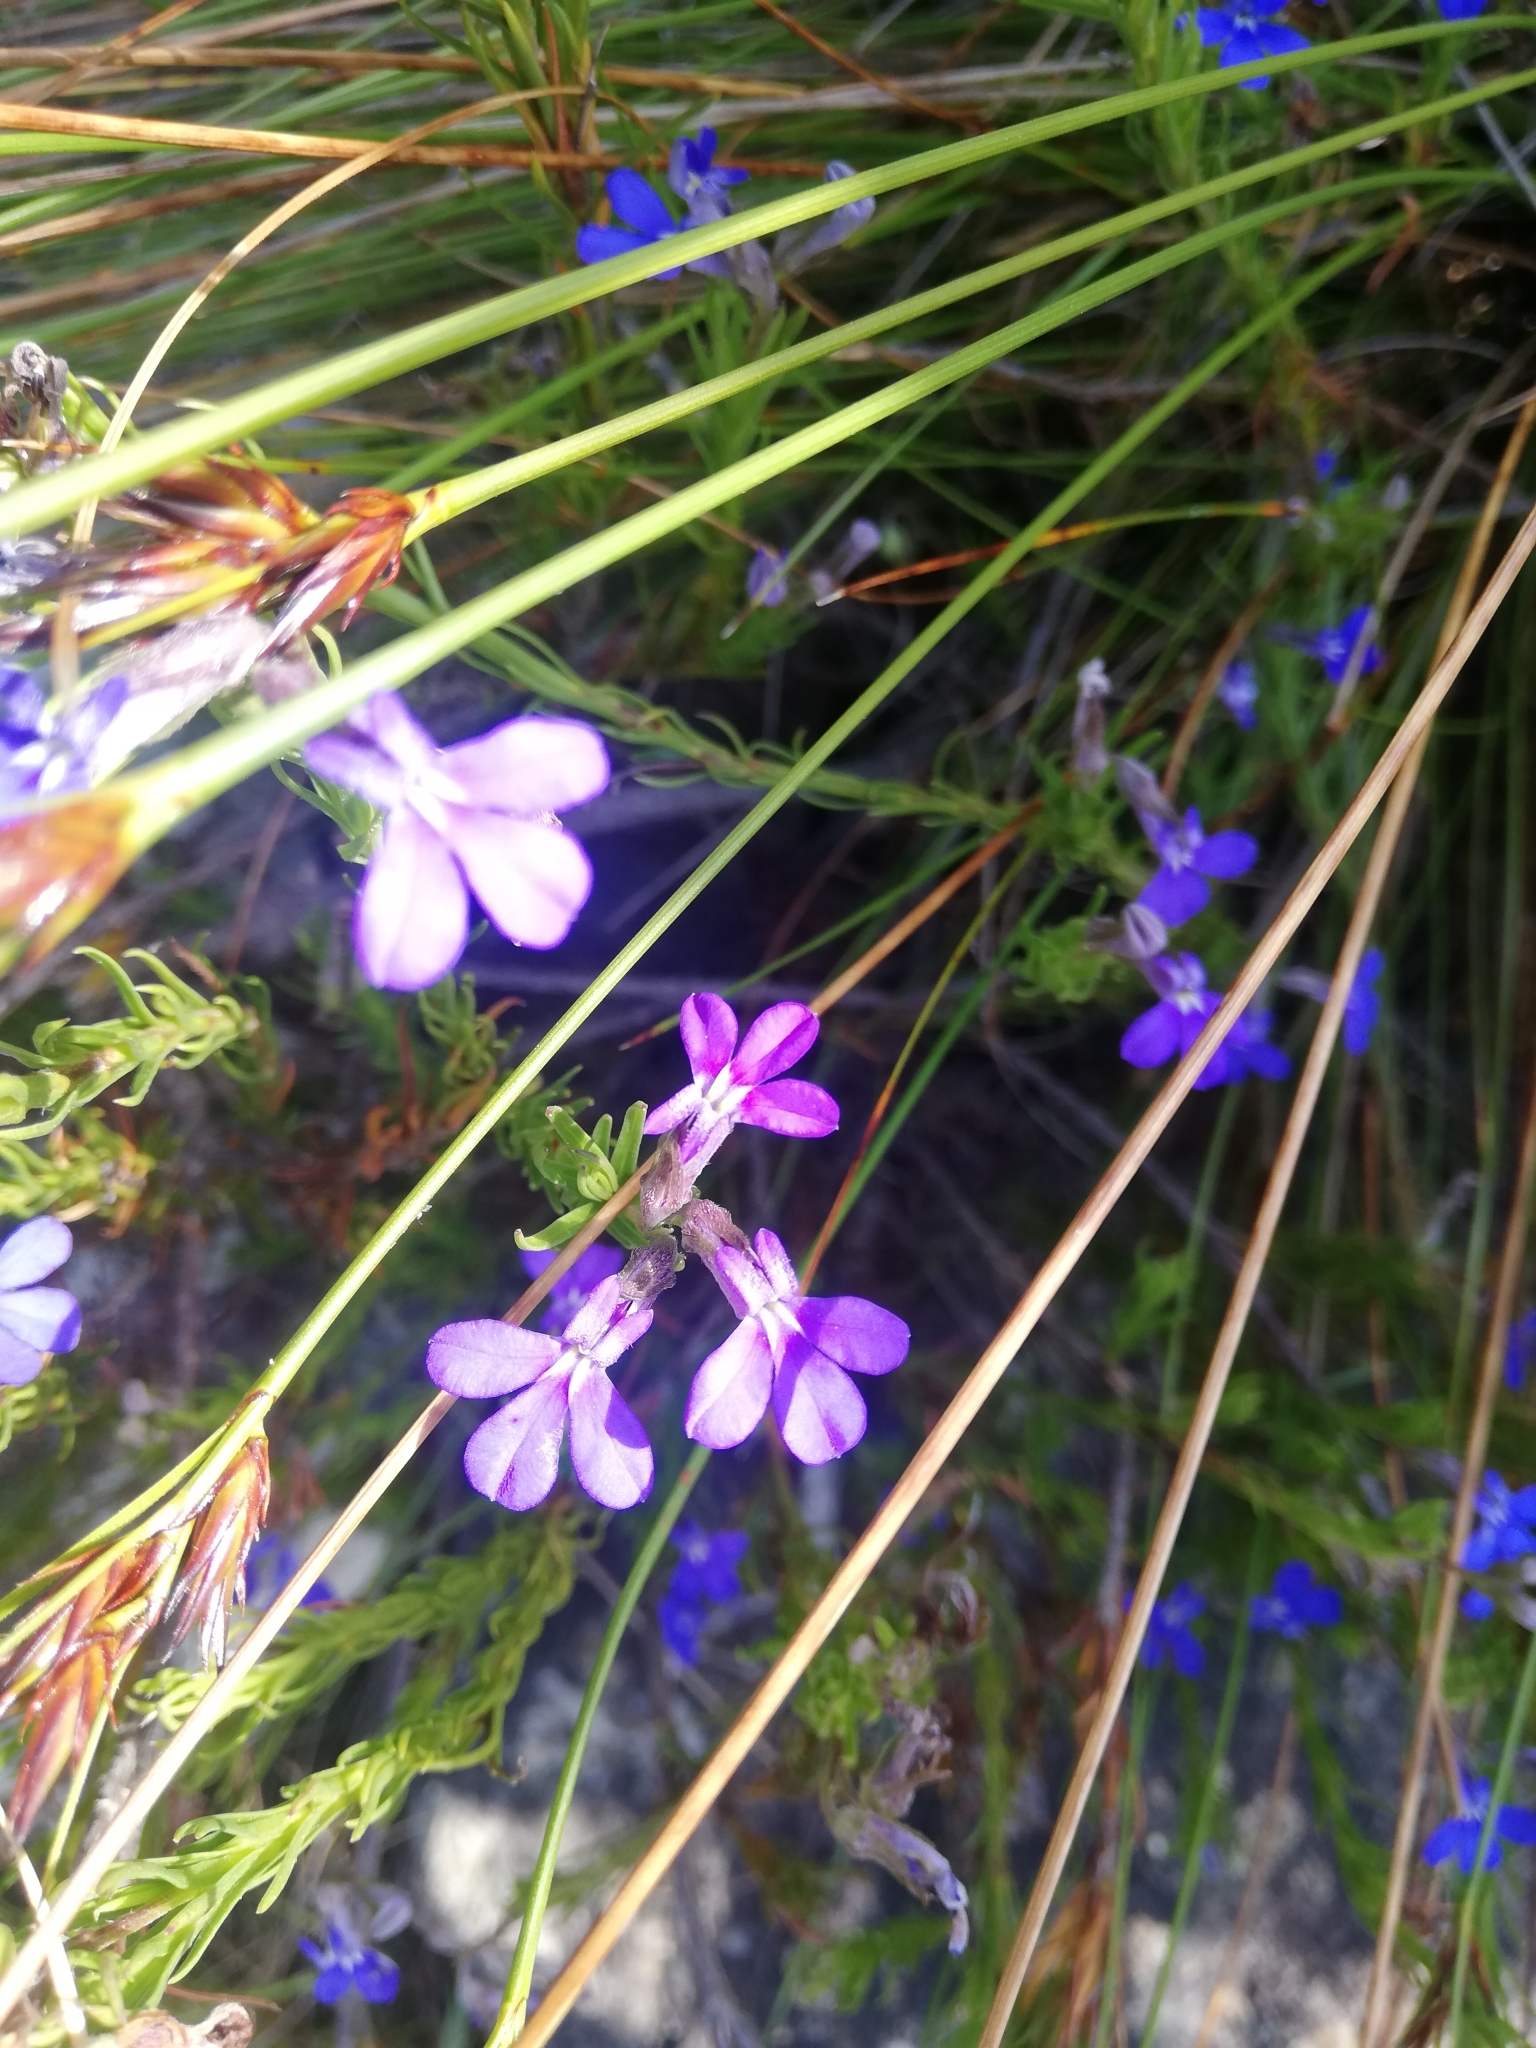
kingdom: Plantae
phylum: Tracheophyta
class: Magnoliopsida
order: Asterales
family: Campanulaceae
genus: Lobelia
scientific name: Lobelia pinifolia
